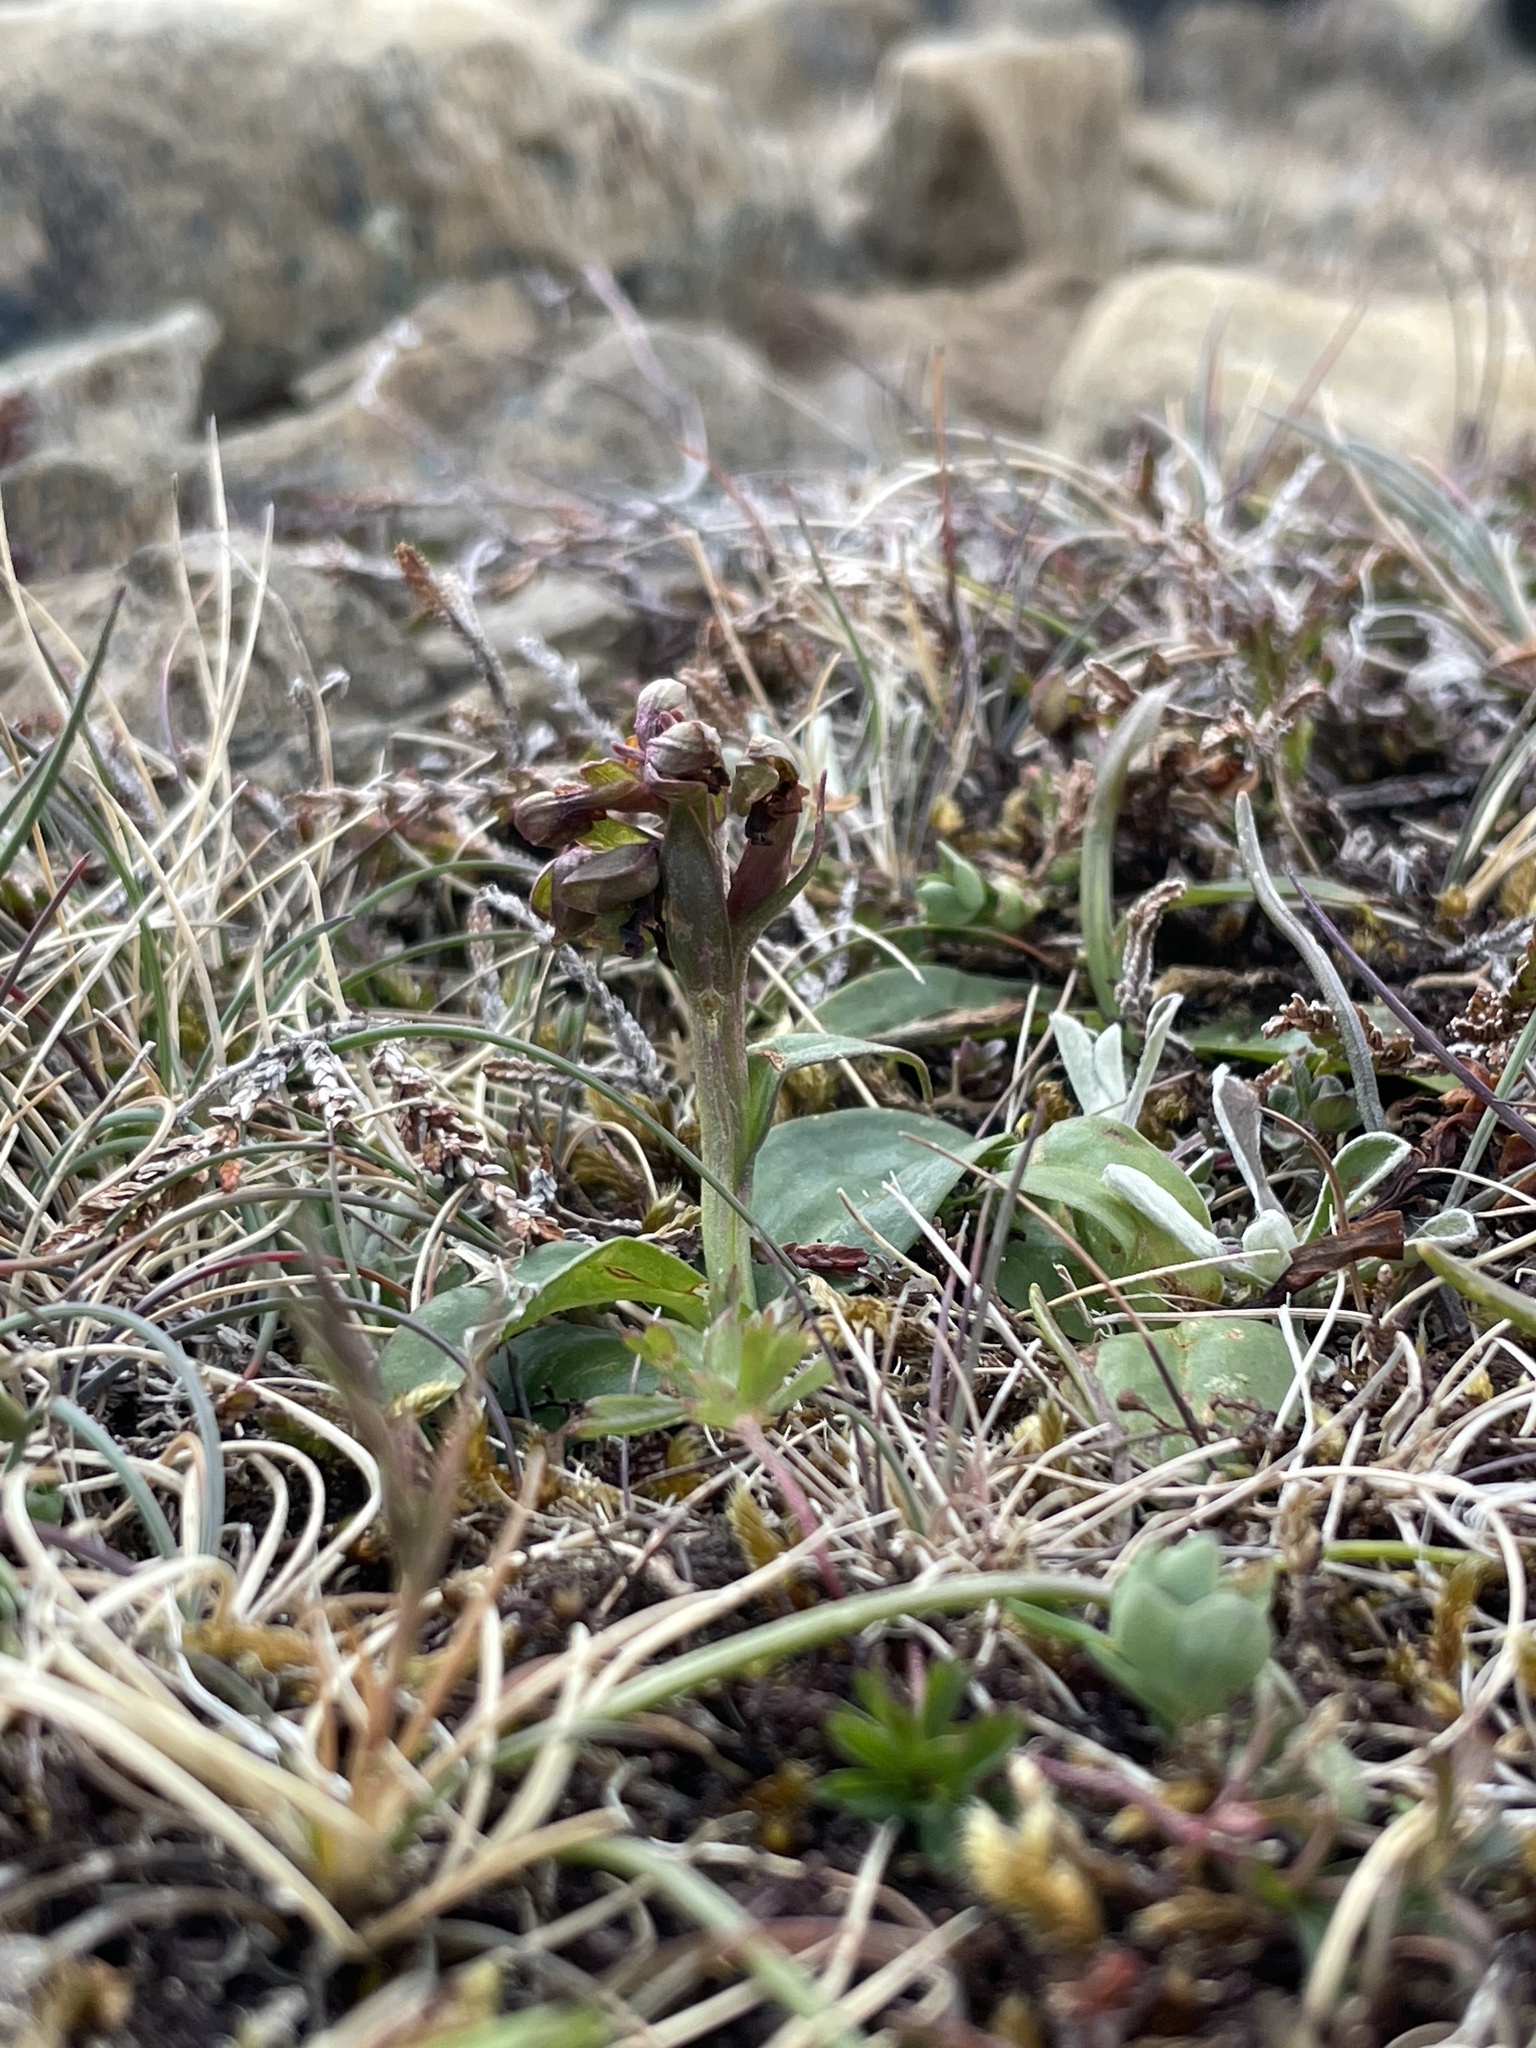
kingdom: Plantae
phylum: Tracheophyta
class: Liliopsida
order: Asparagales
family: Orchidaceae
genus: Dactylorhiza
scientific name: Dactylorhiza viridis
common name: Longbract frog orchid
